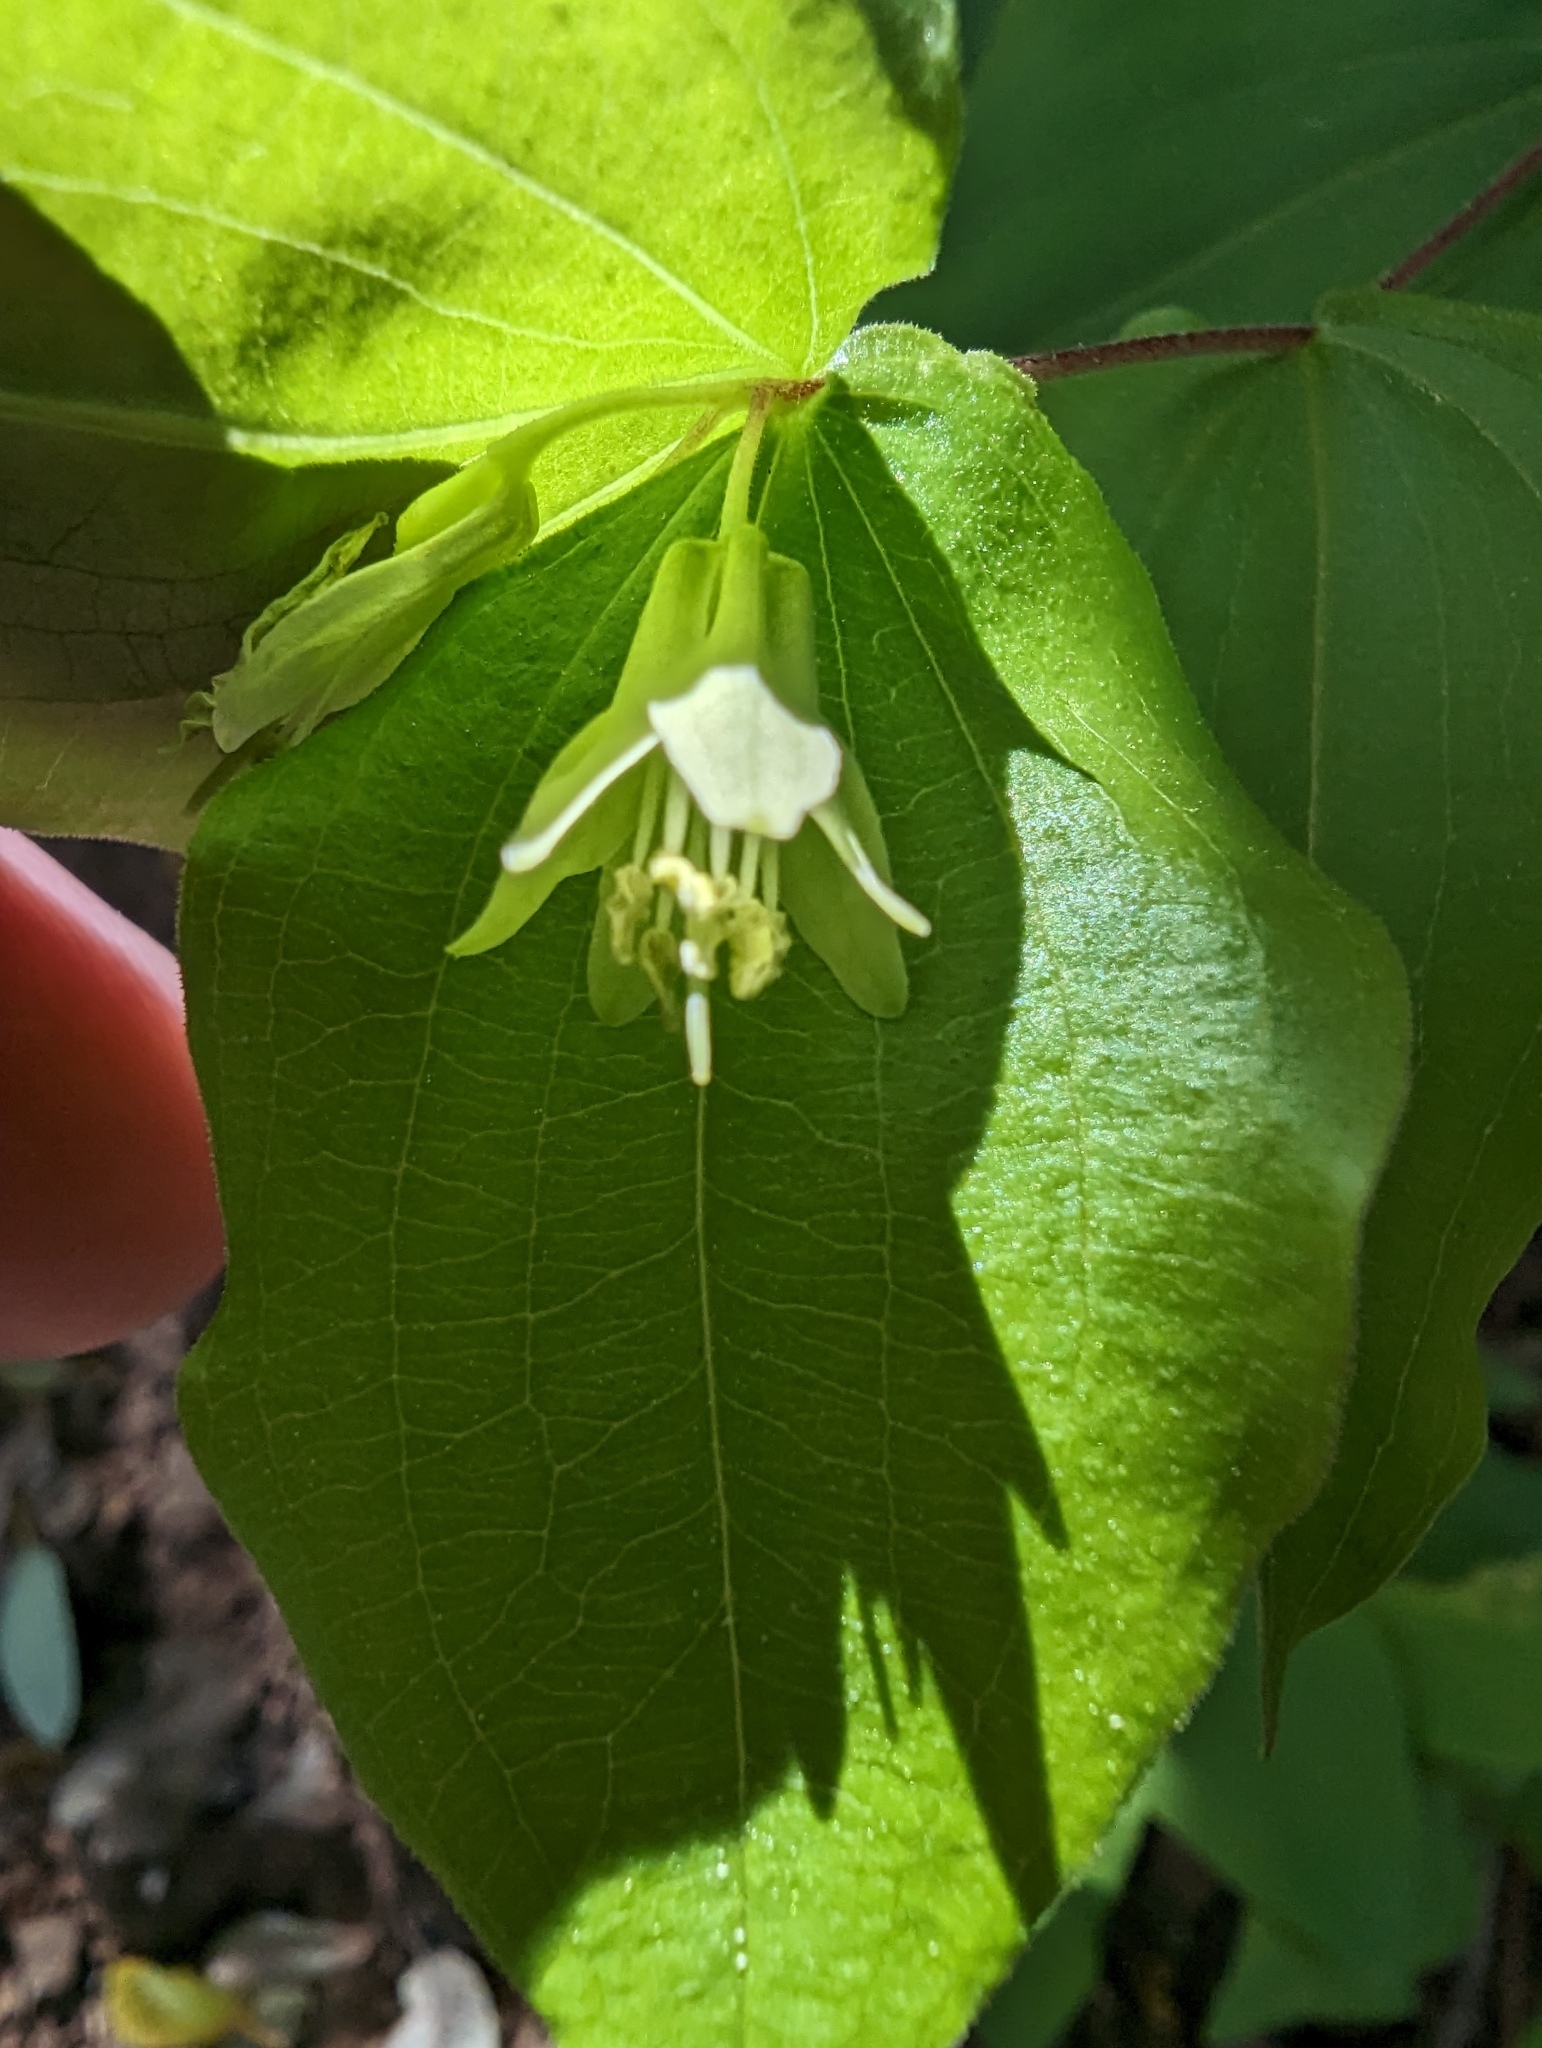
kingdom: Plantae
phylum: Tracheophyta
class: Liliopsida
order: Liliales
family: Liliaceae
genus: Prosartes
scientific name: Prosartes hookeri
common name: Fairy-bells
